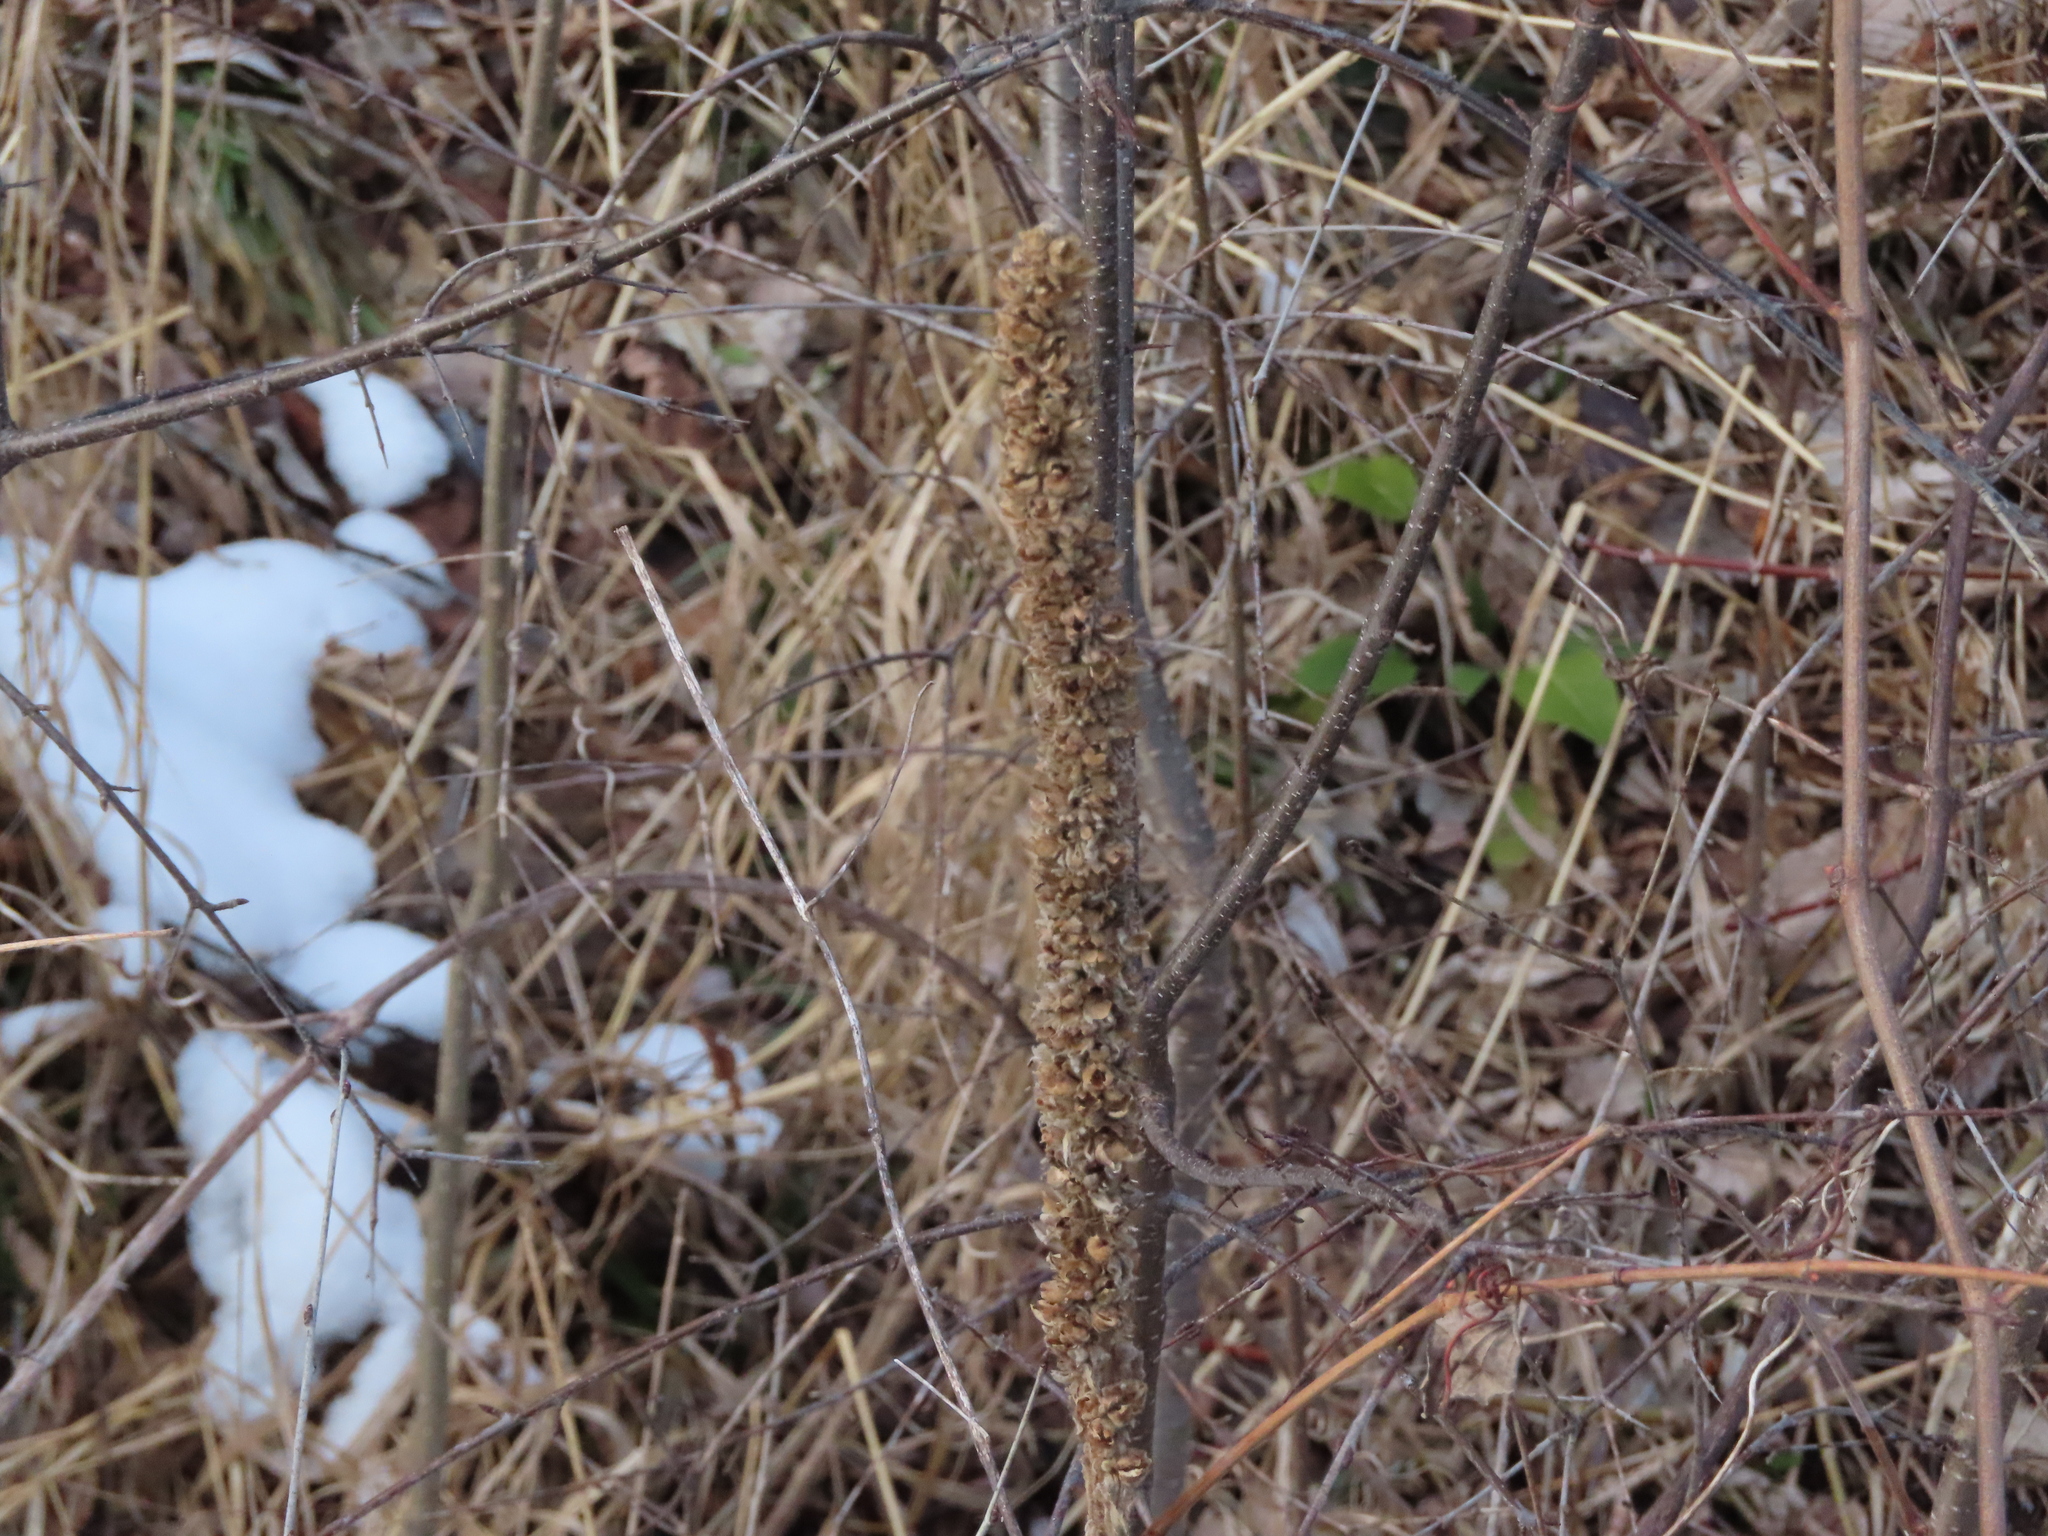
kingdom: Plantae
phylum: Tracheophyta
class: Magnoliopsida
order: Lamiales
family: Scrophulariaceae
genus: Verbascum
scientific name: Verbascum thapsus
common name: Common mullein
